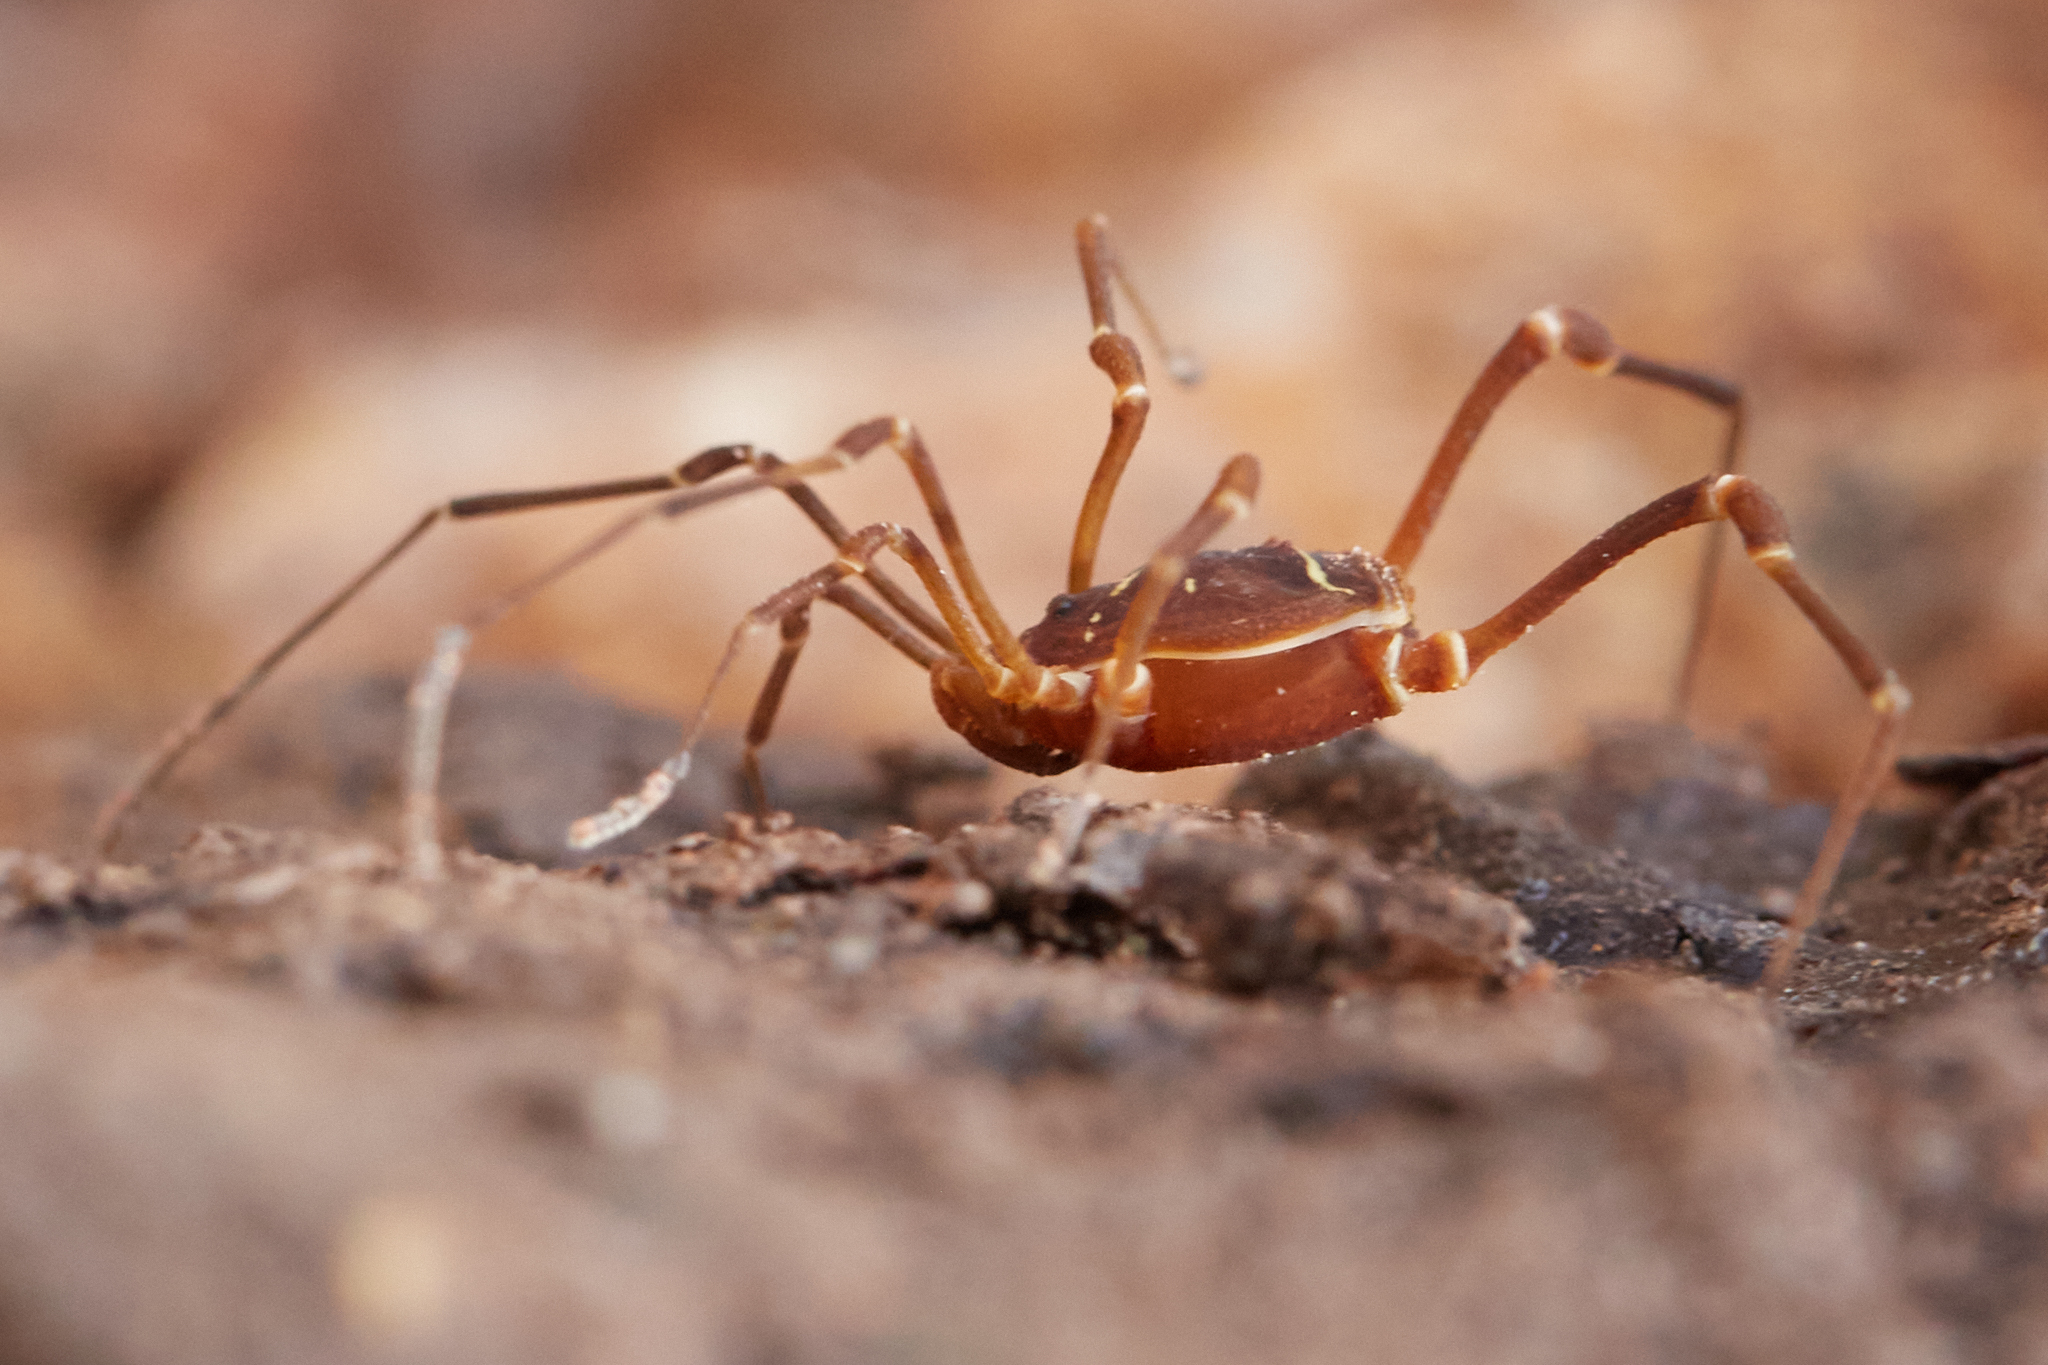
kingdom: Animalia
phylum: Arthropoda
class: Arachnida
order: Opiliones
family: Cosmetidae
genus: Libitioides
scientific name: Libitioides sayi
